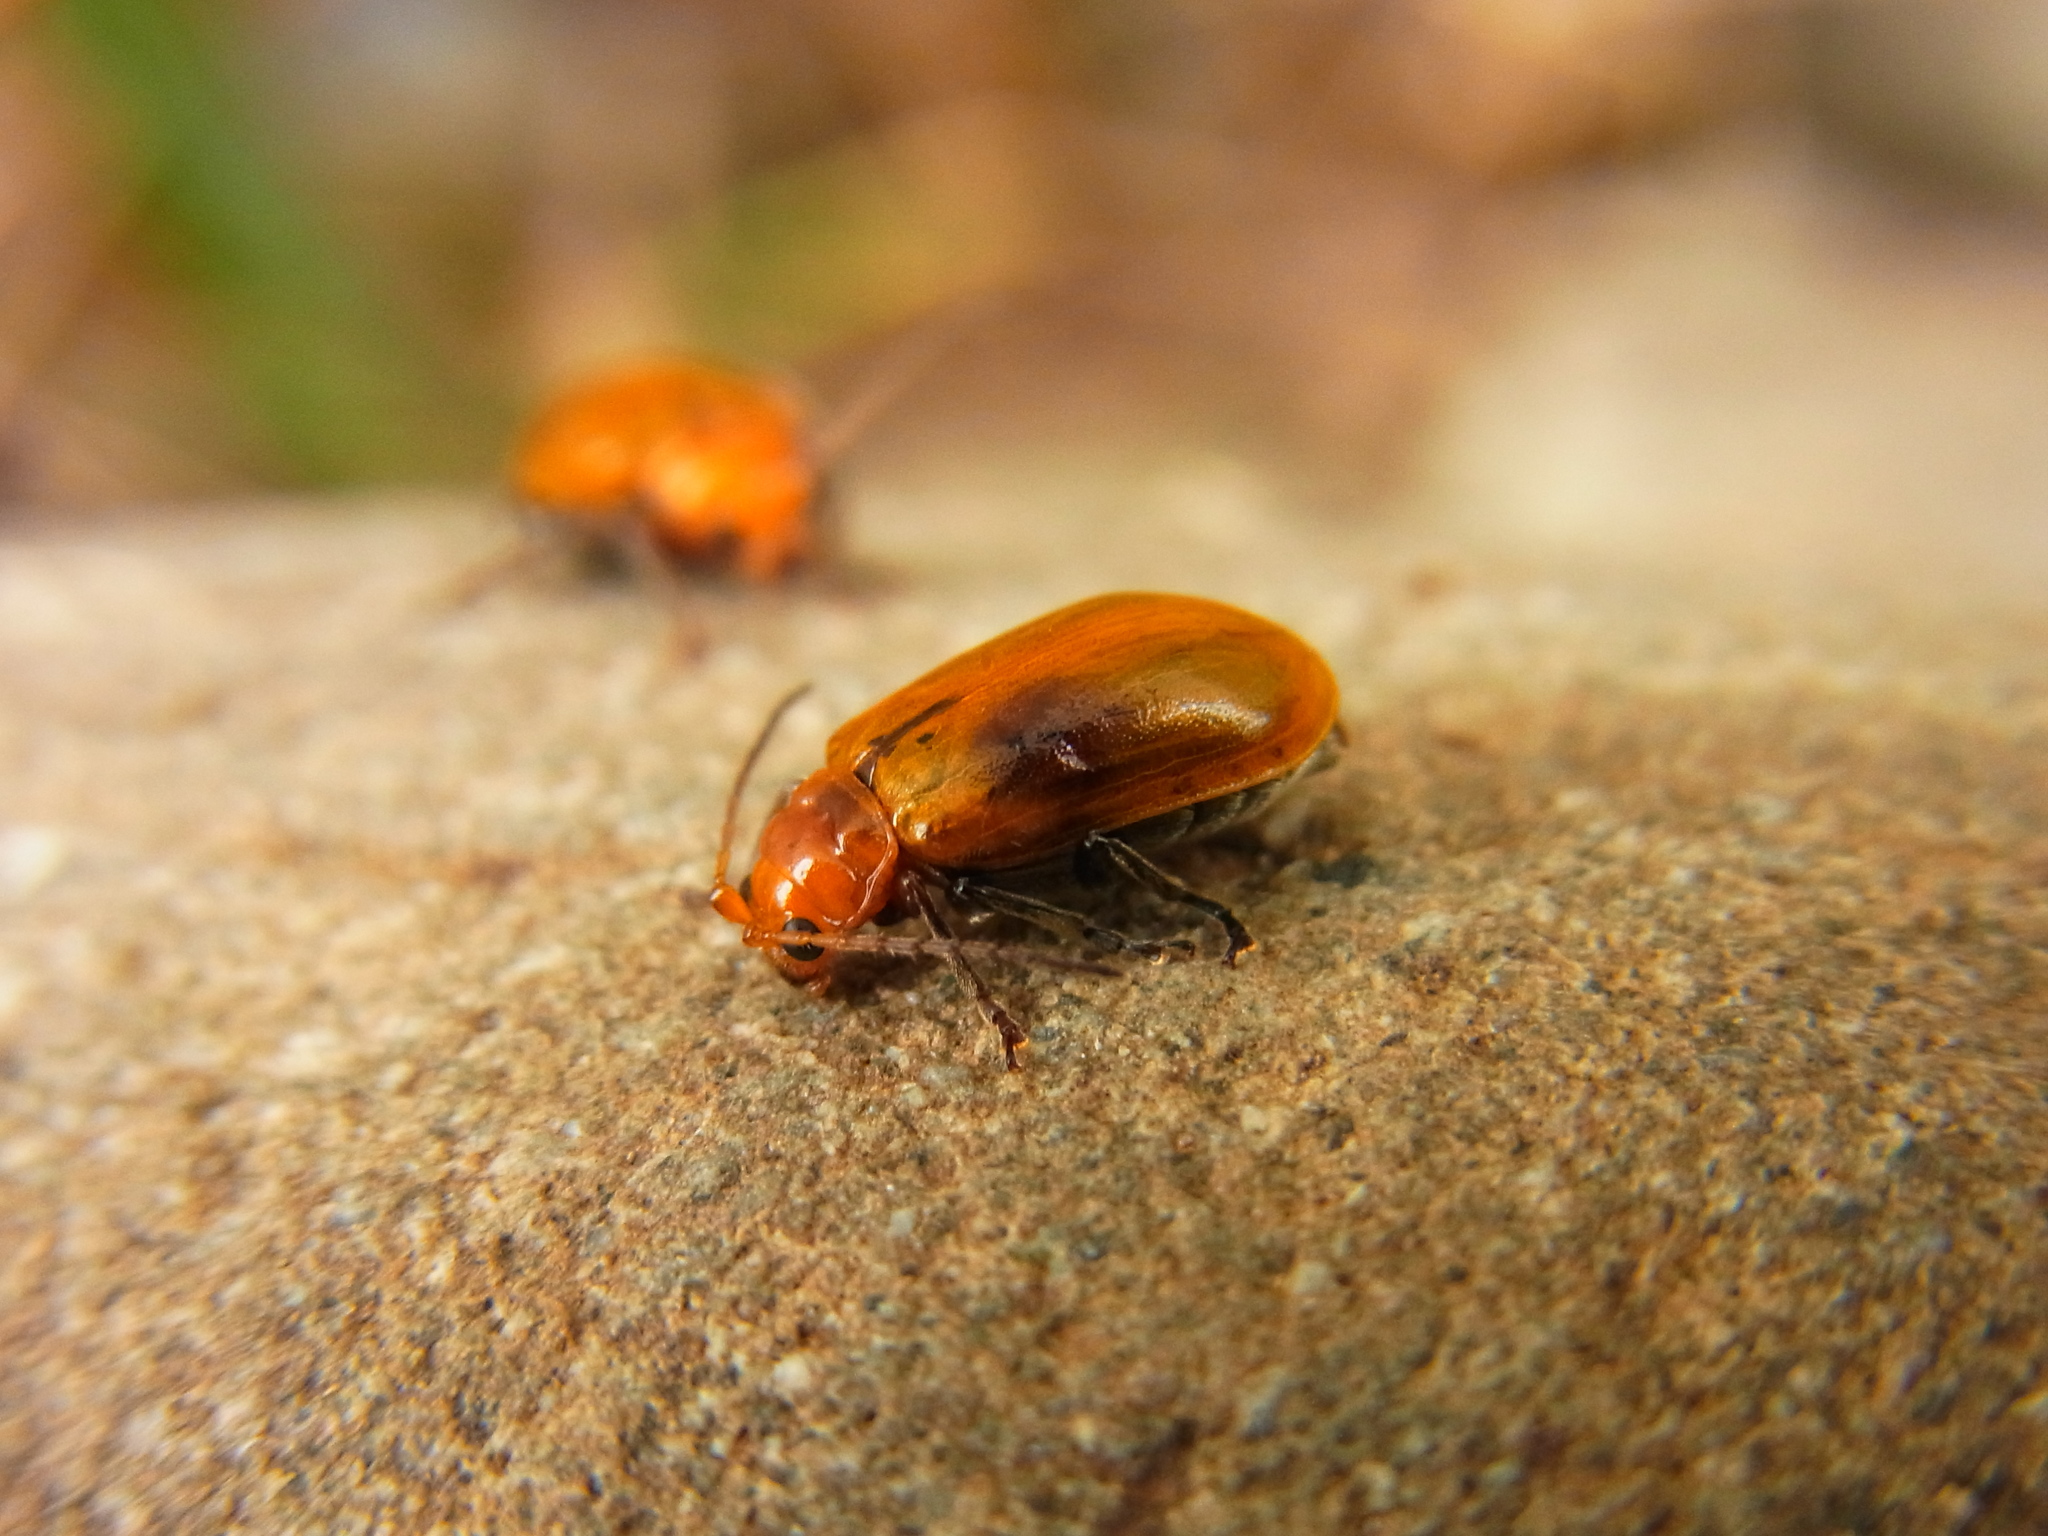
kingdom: Animalia
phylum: Arthropoda
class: Insecta
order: Coleoptera
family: Chrysomelidae
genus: Aulacophora
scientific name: Aulacophora indica
